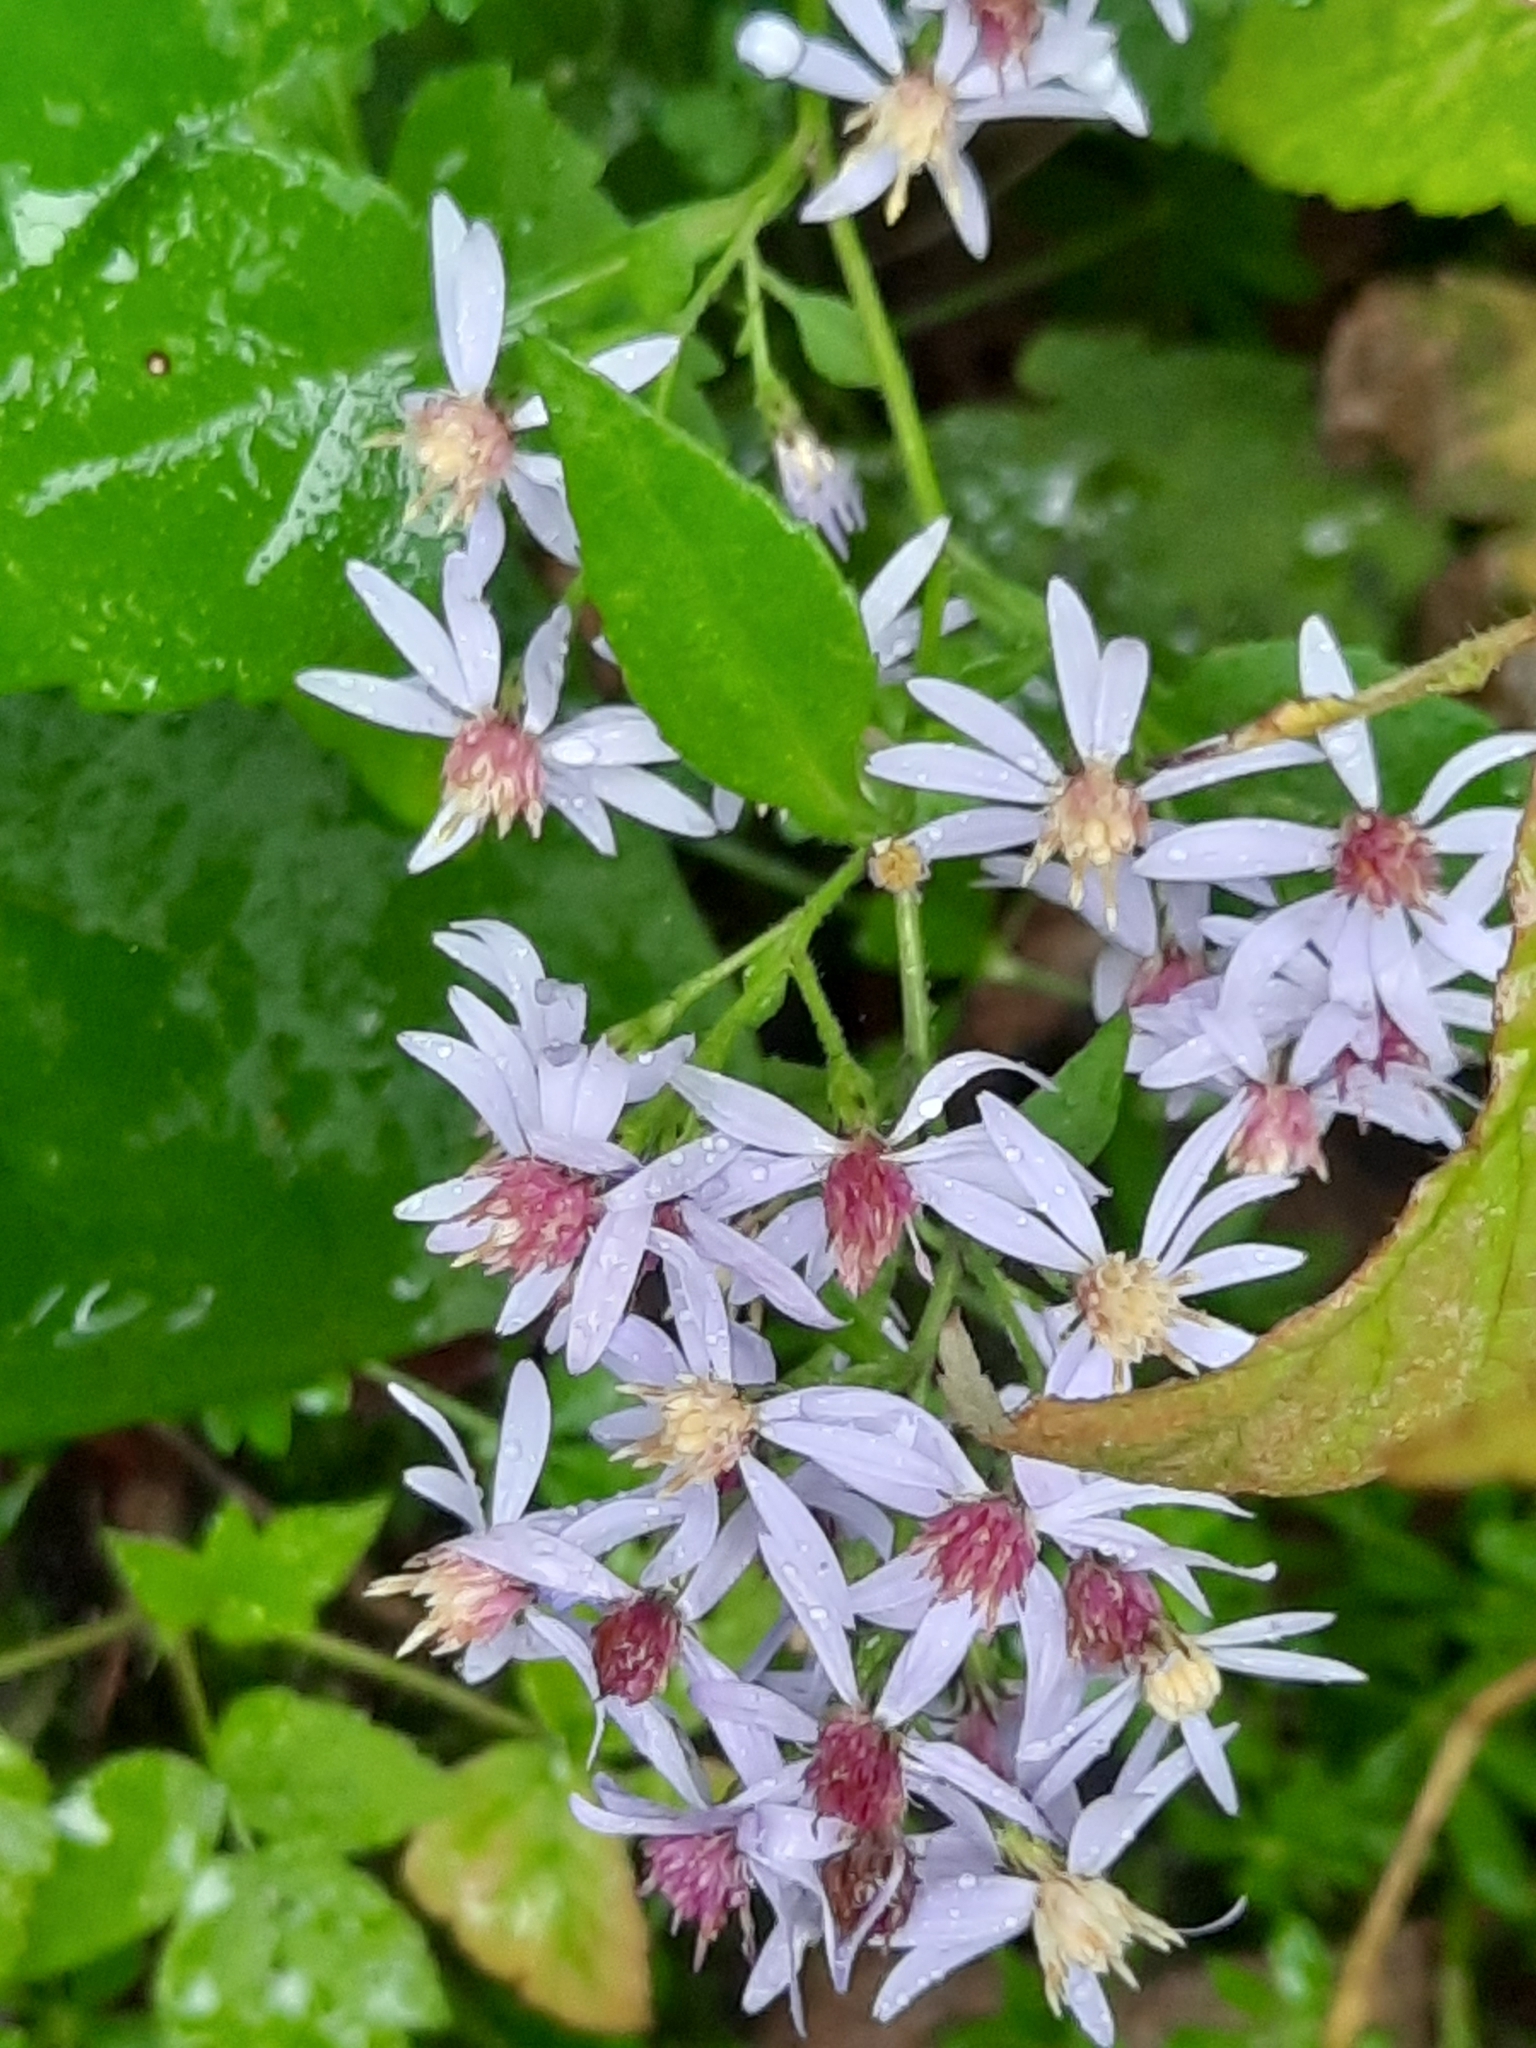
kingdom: Plantae
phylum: Tracheophyta
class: Magnoliopsida
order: Asterales
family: Asteraceae
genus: Symphyotrichum
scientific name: Symphyotrichum cordifolium
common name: Beeweed
